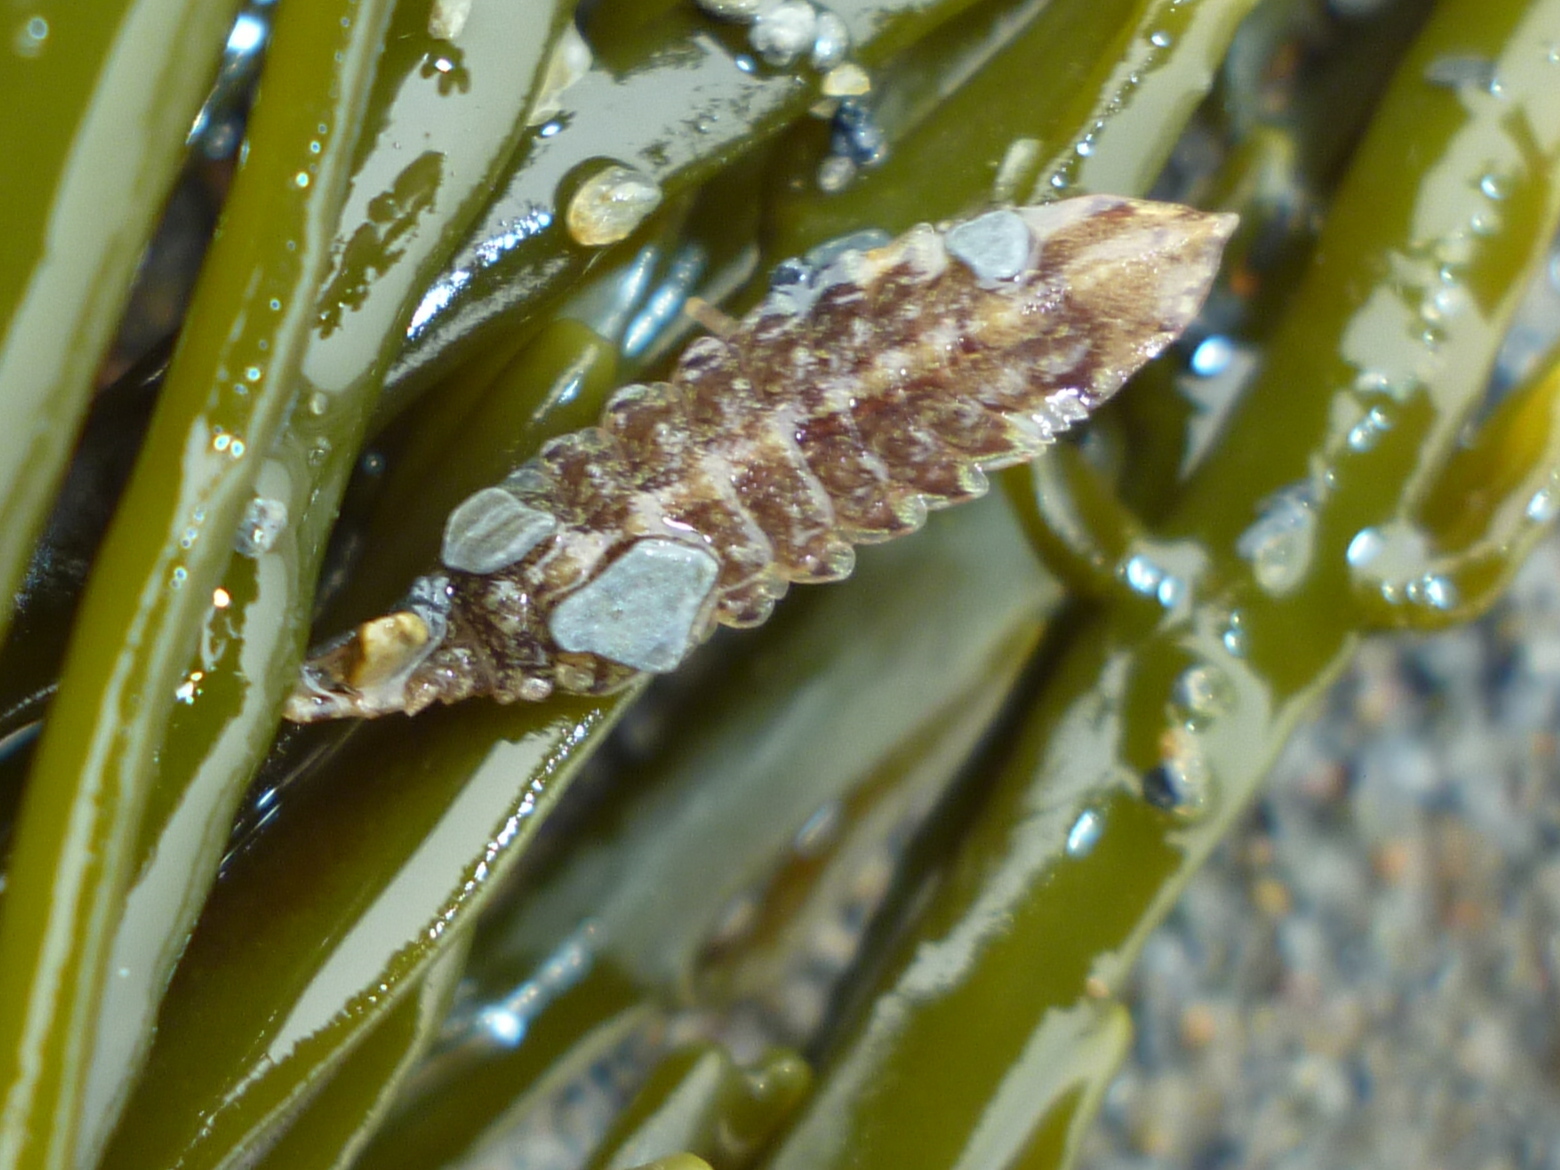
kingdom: Animalia
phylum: Arthropoda
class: Malacostraca
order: Isopoda
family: Idoteidae
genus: Idotea
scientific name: Idotea phosphorea
